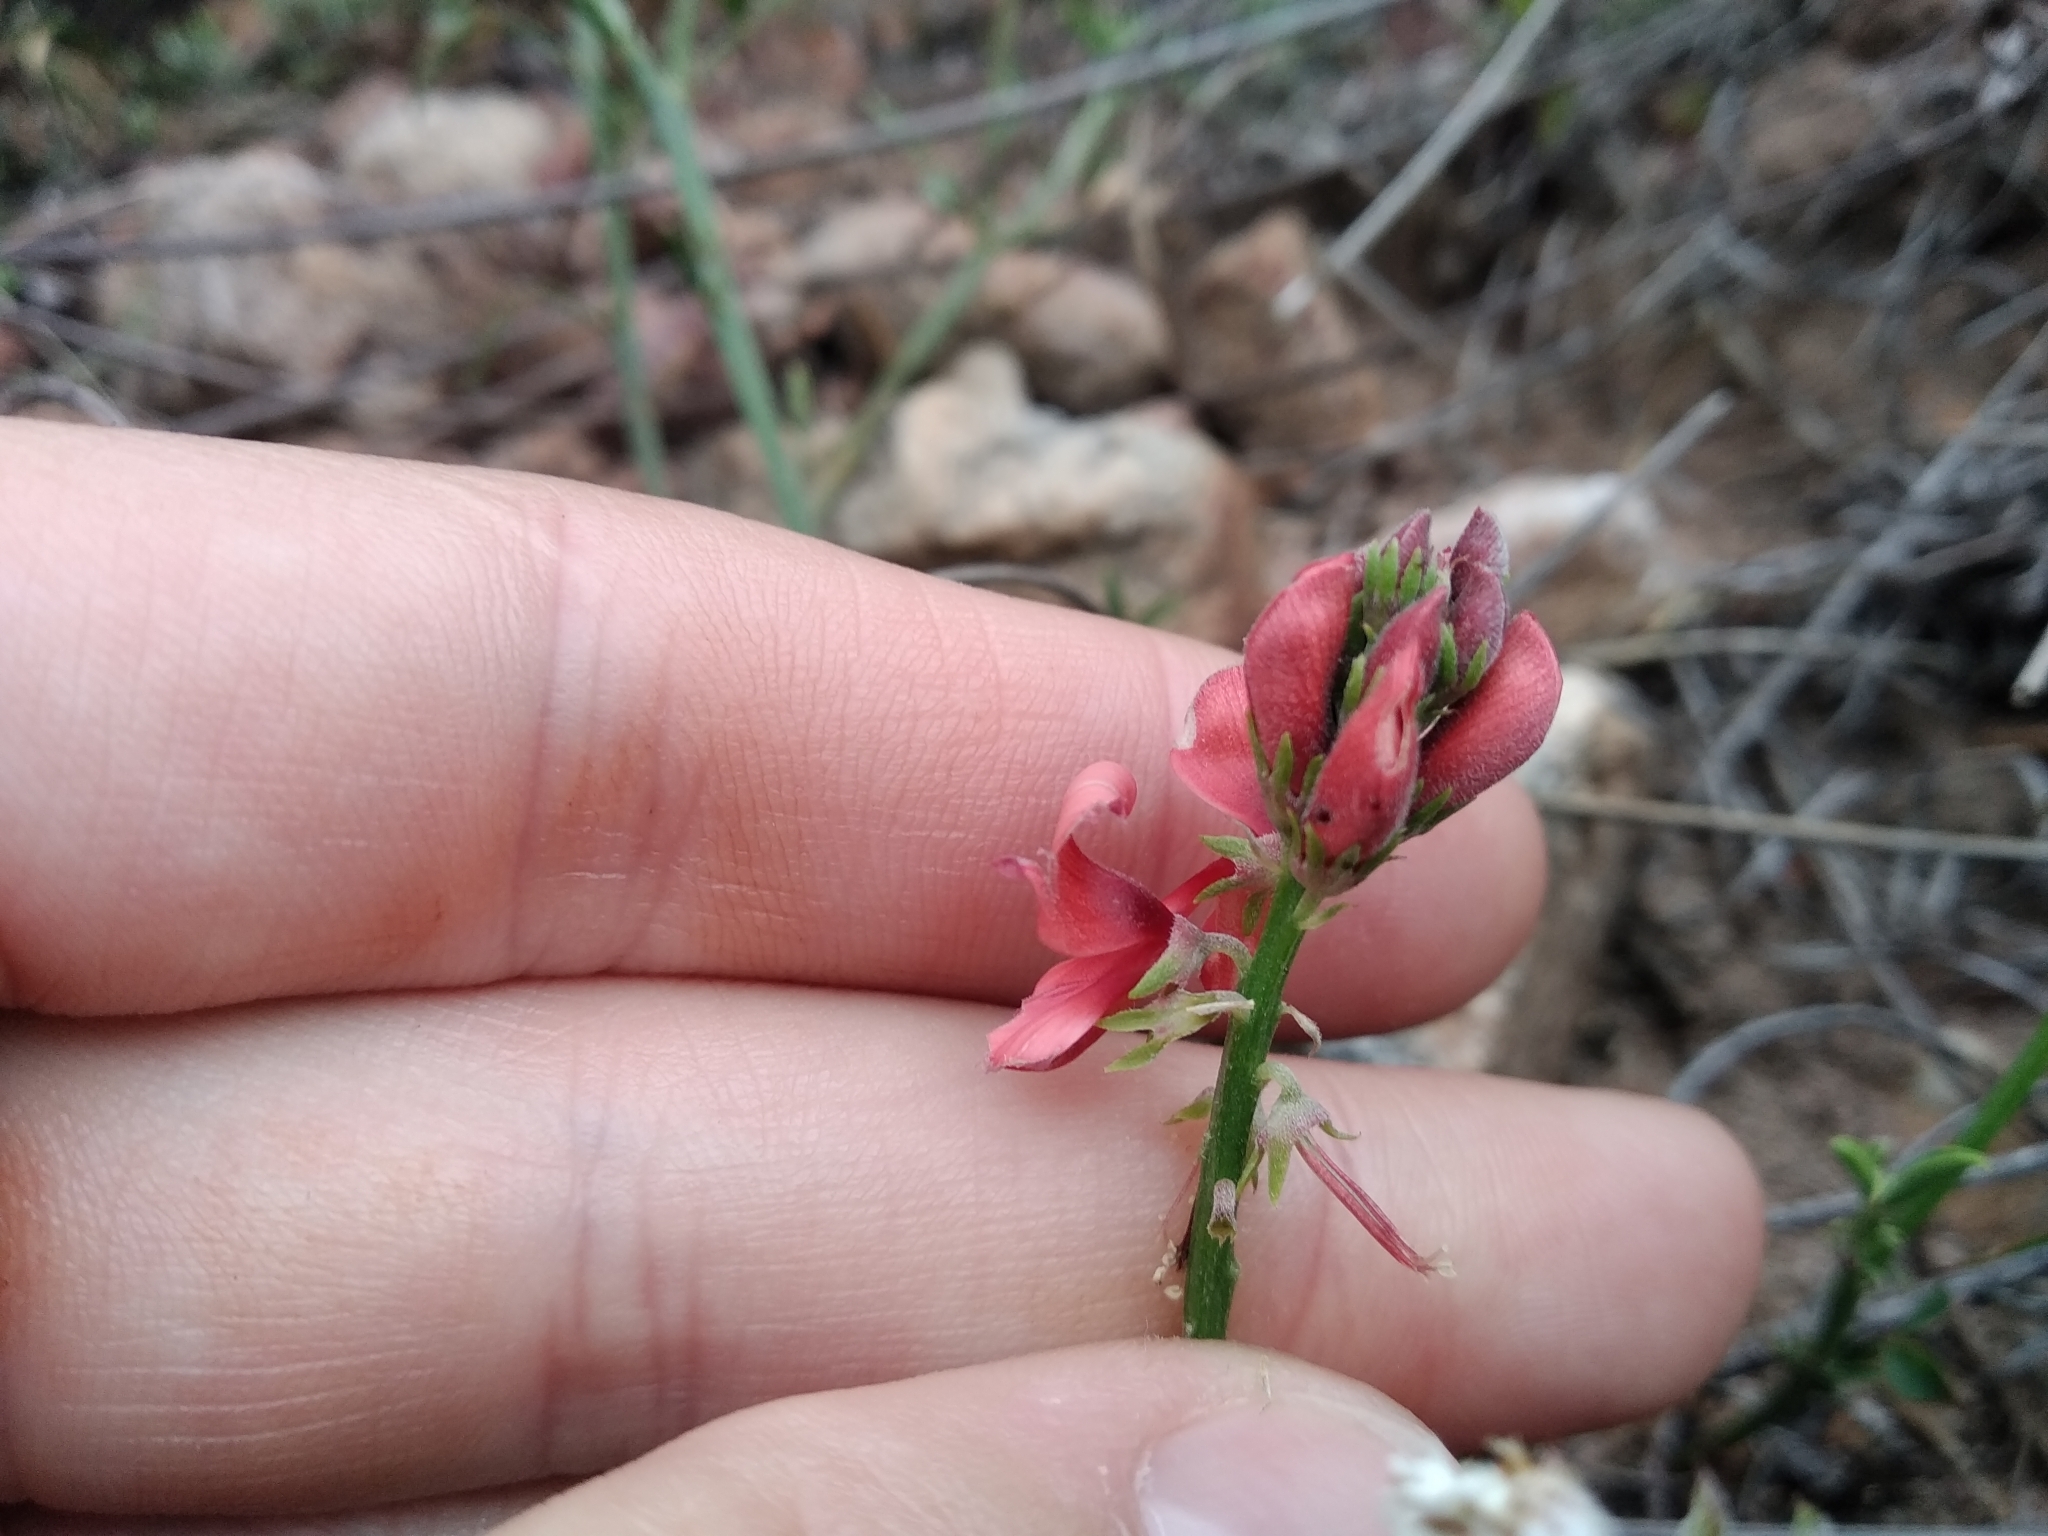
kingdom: Plantae
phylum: Tracheophyta
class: Magnoliopsida
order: Fabales
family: Fabaceae
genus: Indigofera
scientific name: Indigofera complanata
